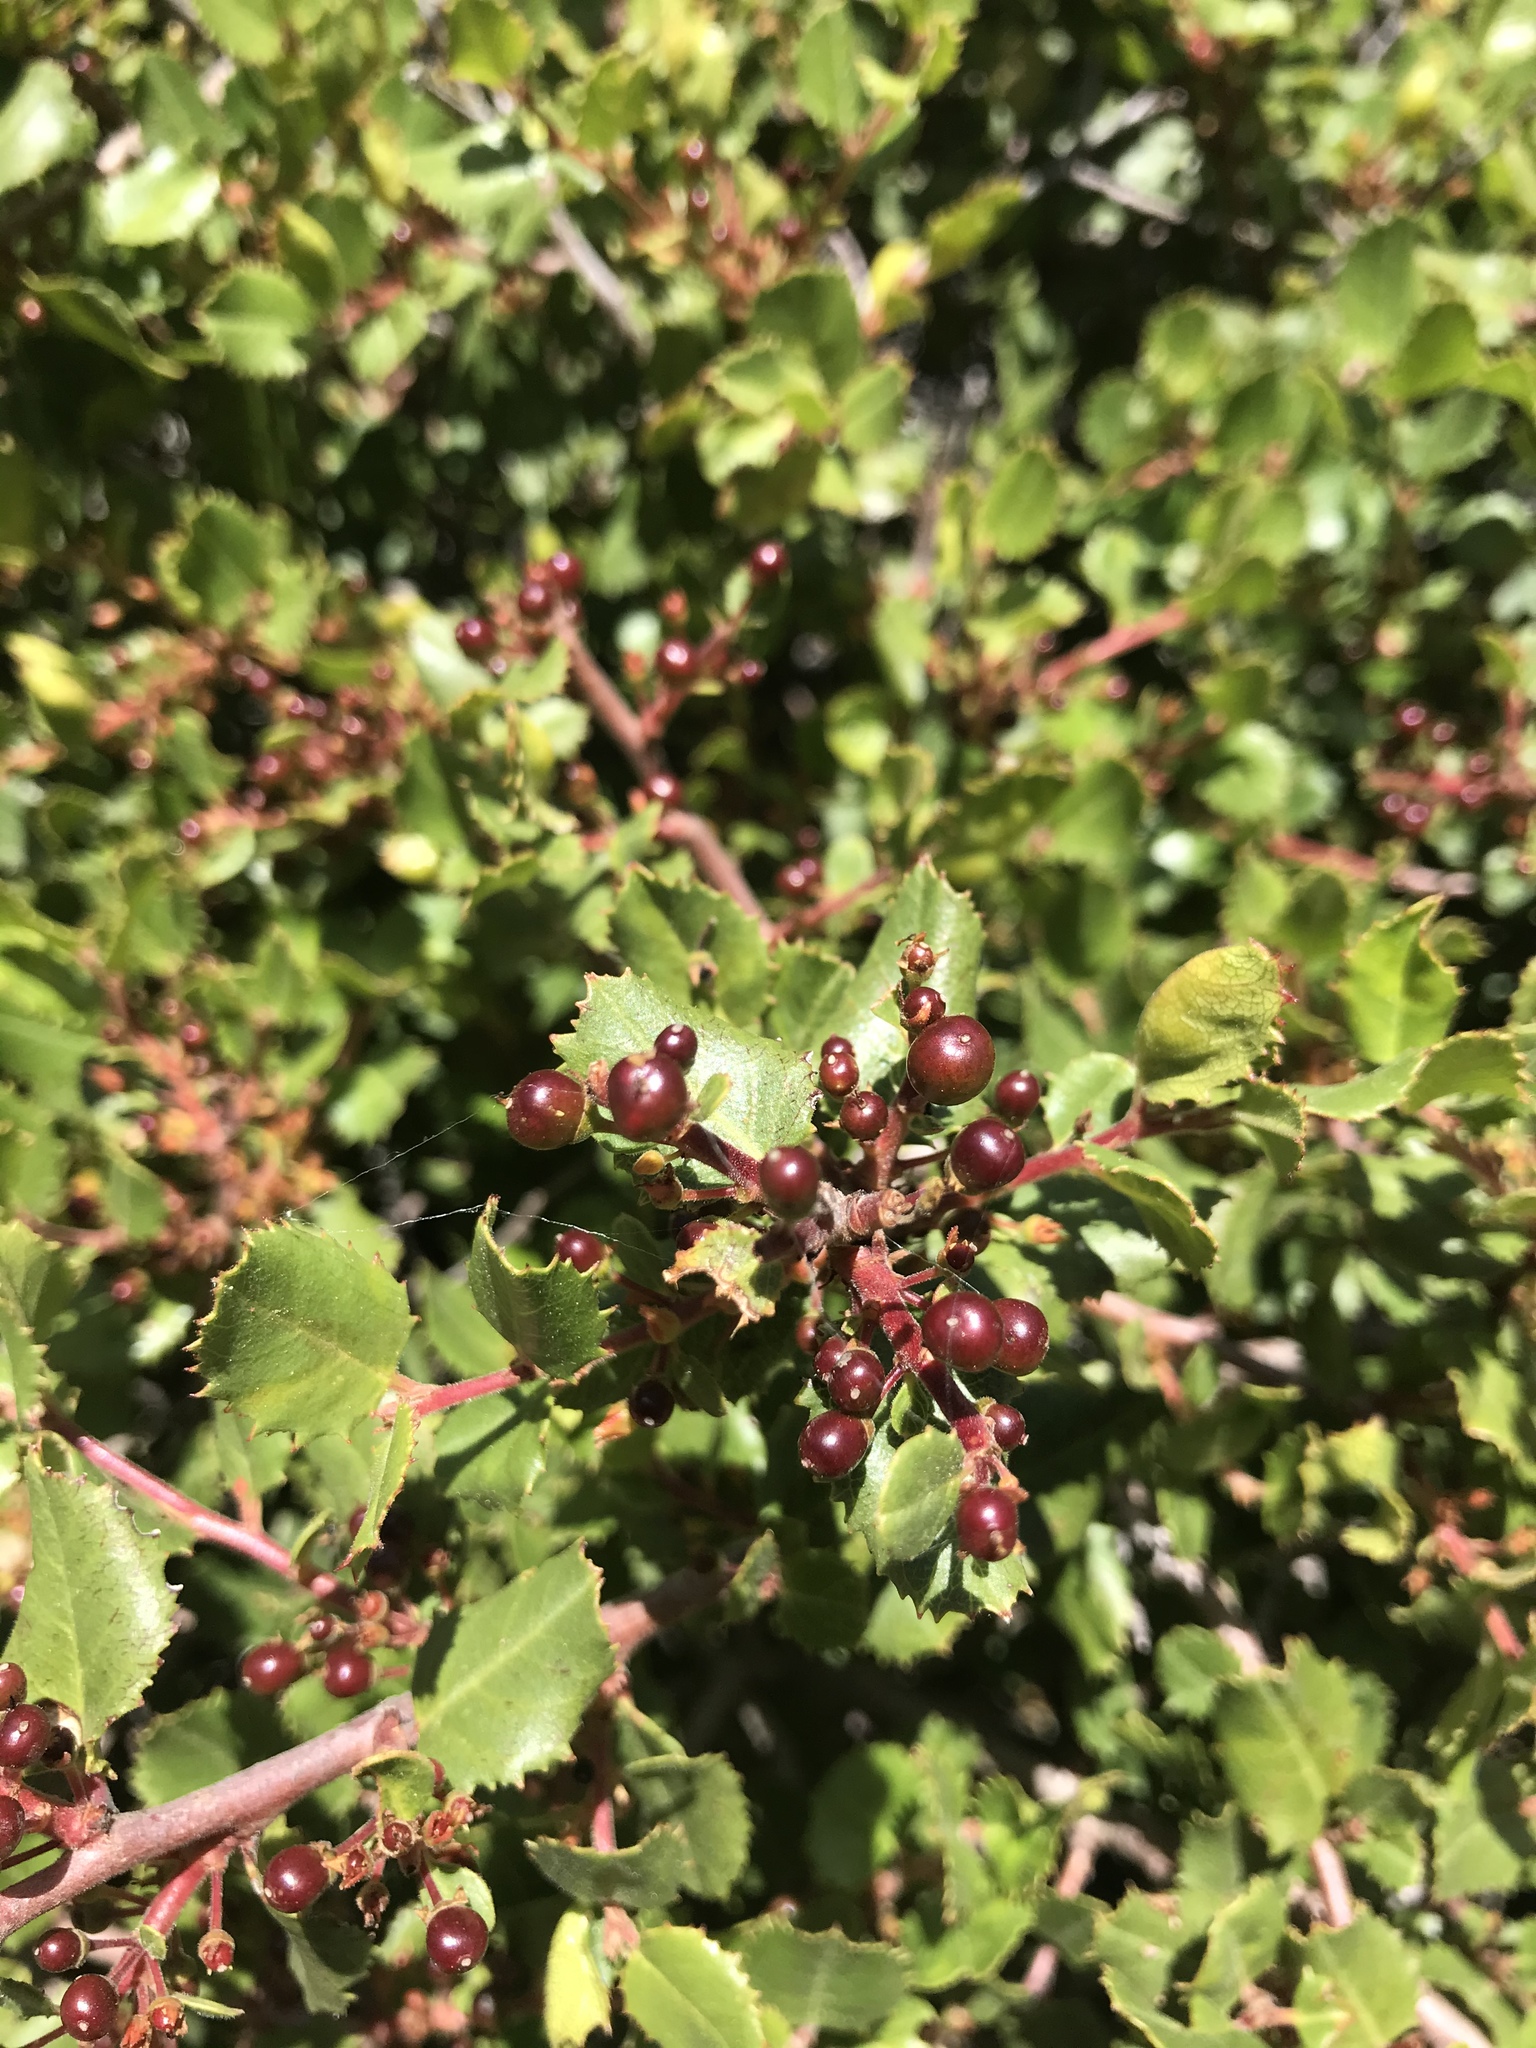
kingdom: Plantae
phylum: Tracheophyta
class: Magnoliopsida
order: Rosales
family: Rhamnaceae
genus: Endotropis
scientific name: Endotropis crocea
